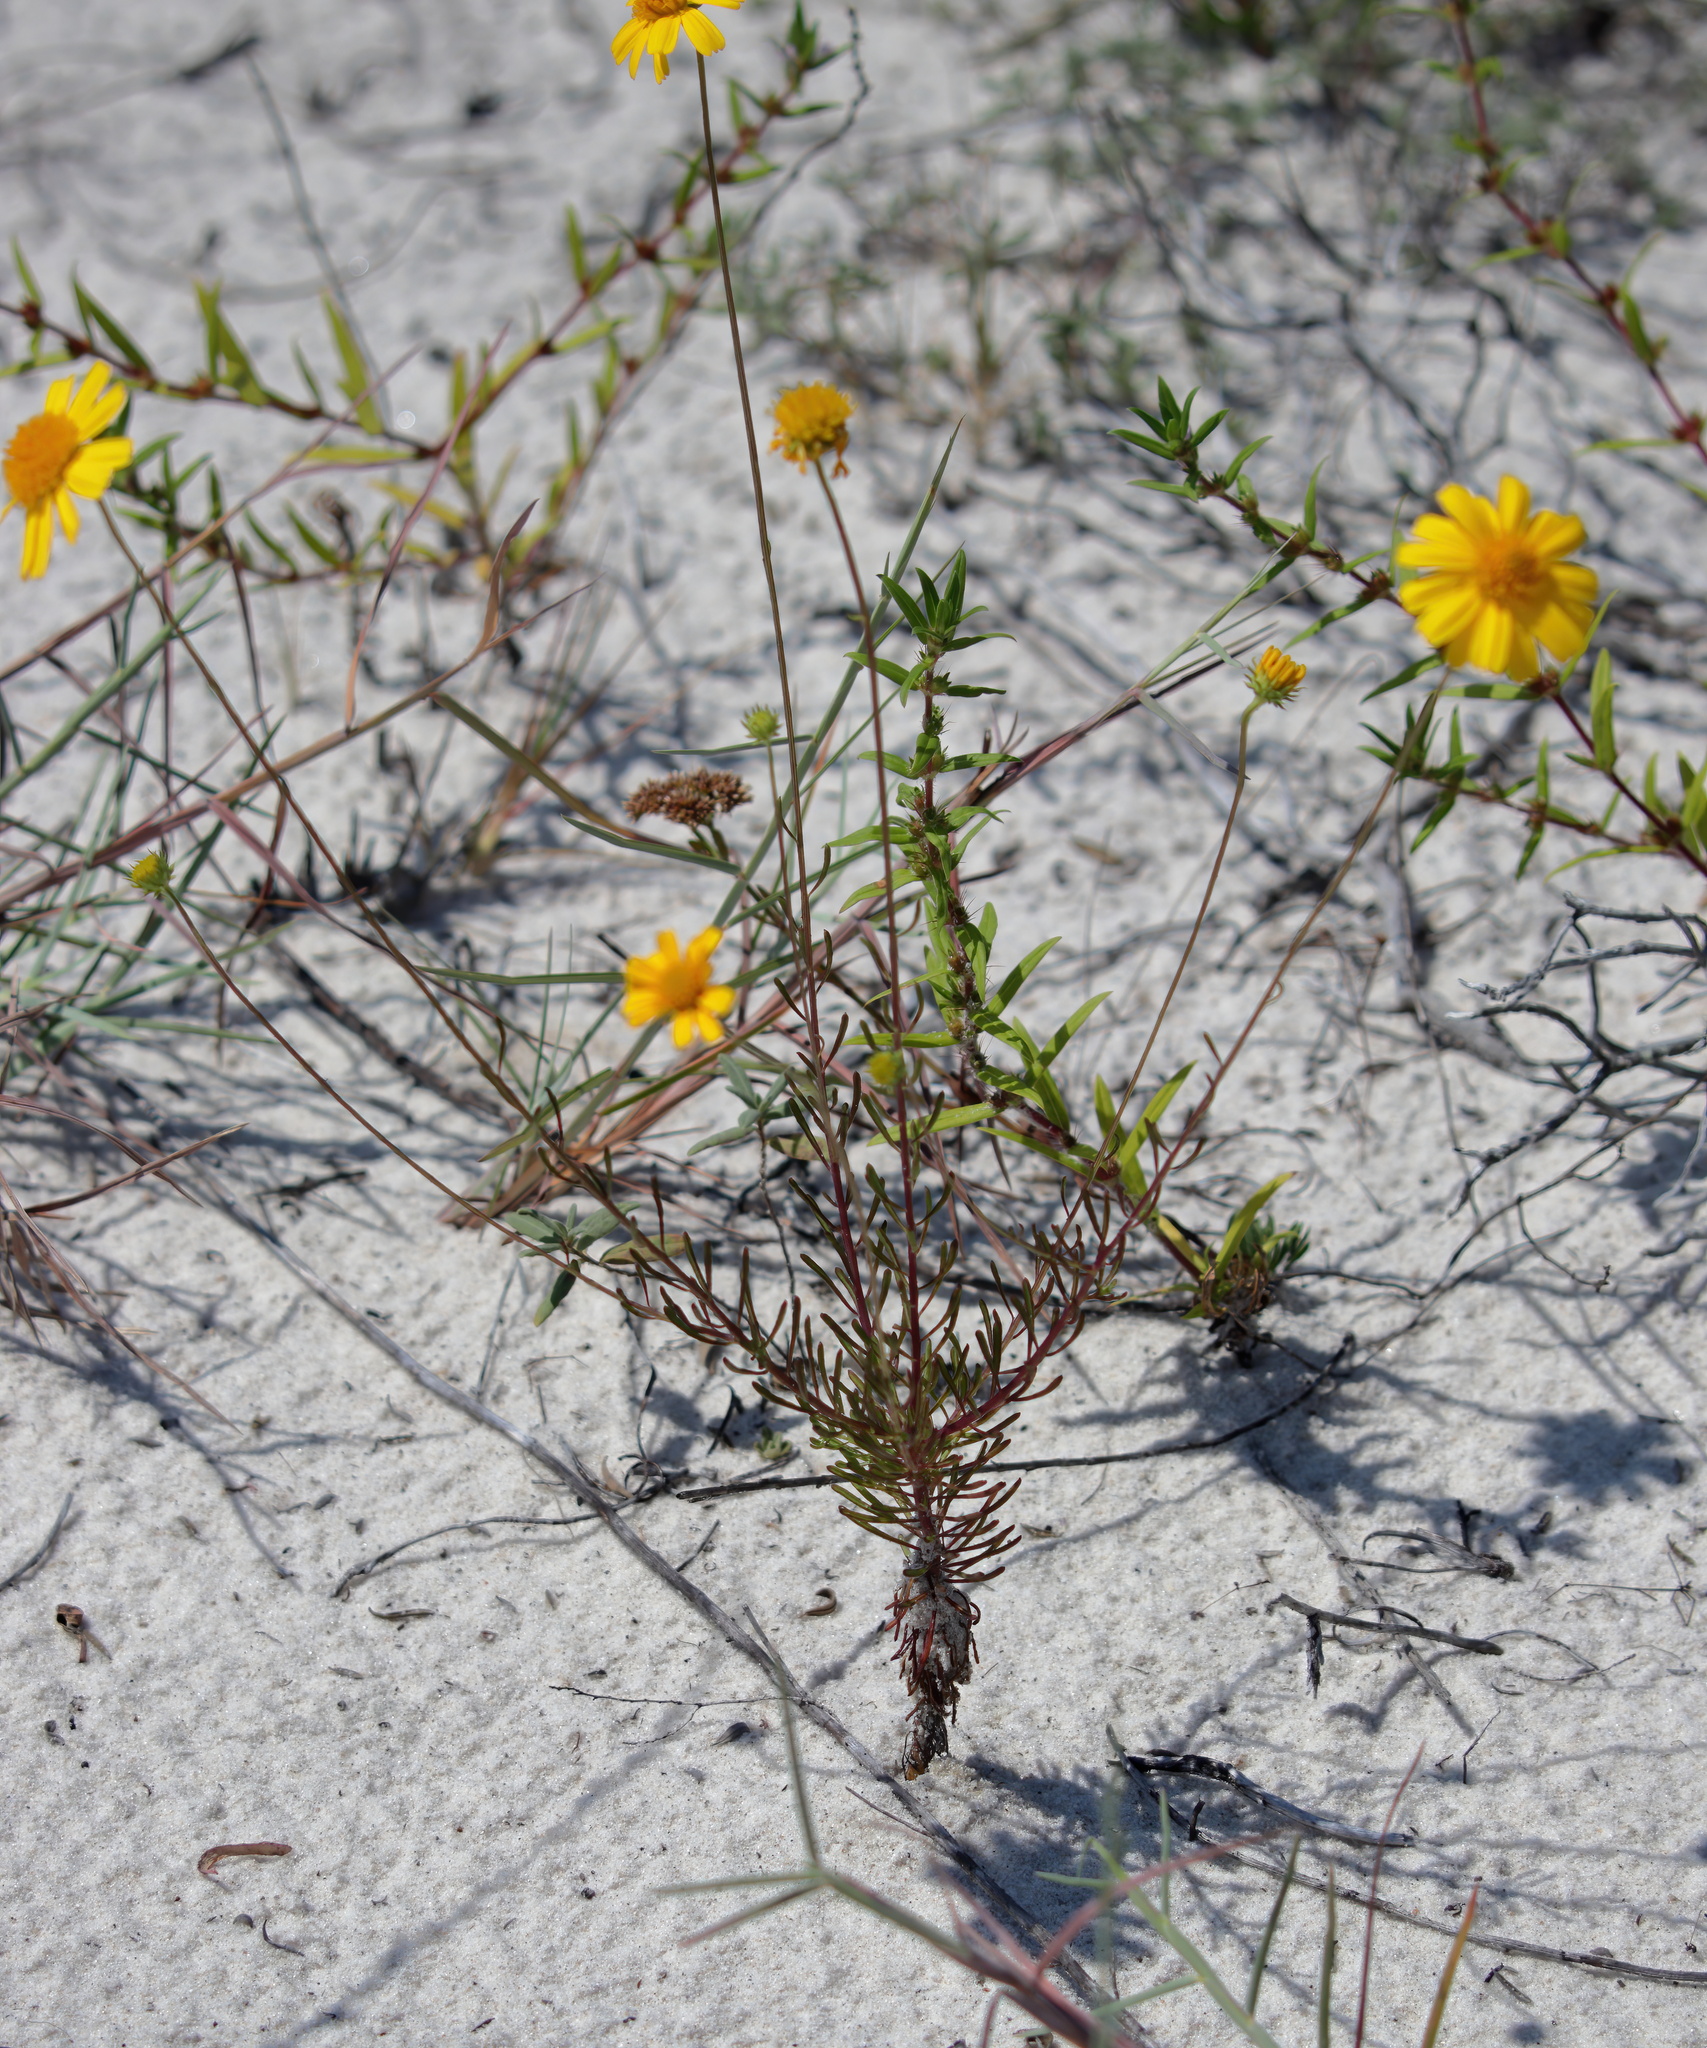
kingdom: Plantae
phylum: Tracheophyta
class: Magnoliopsida
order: Asterales
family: Asteraceae
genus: Balduina
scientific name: Balduina angustifolia
